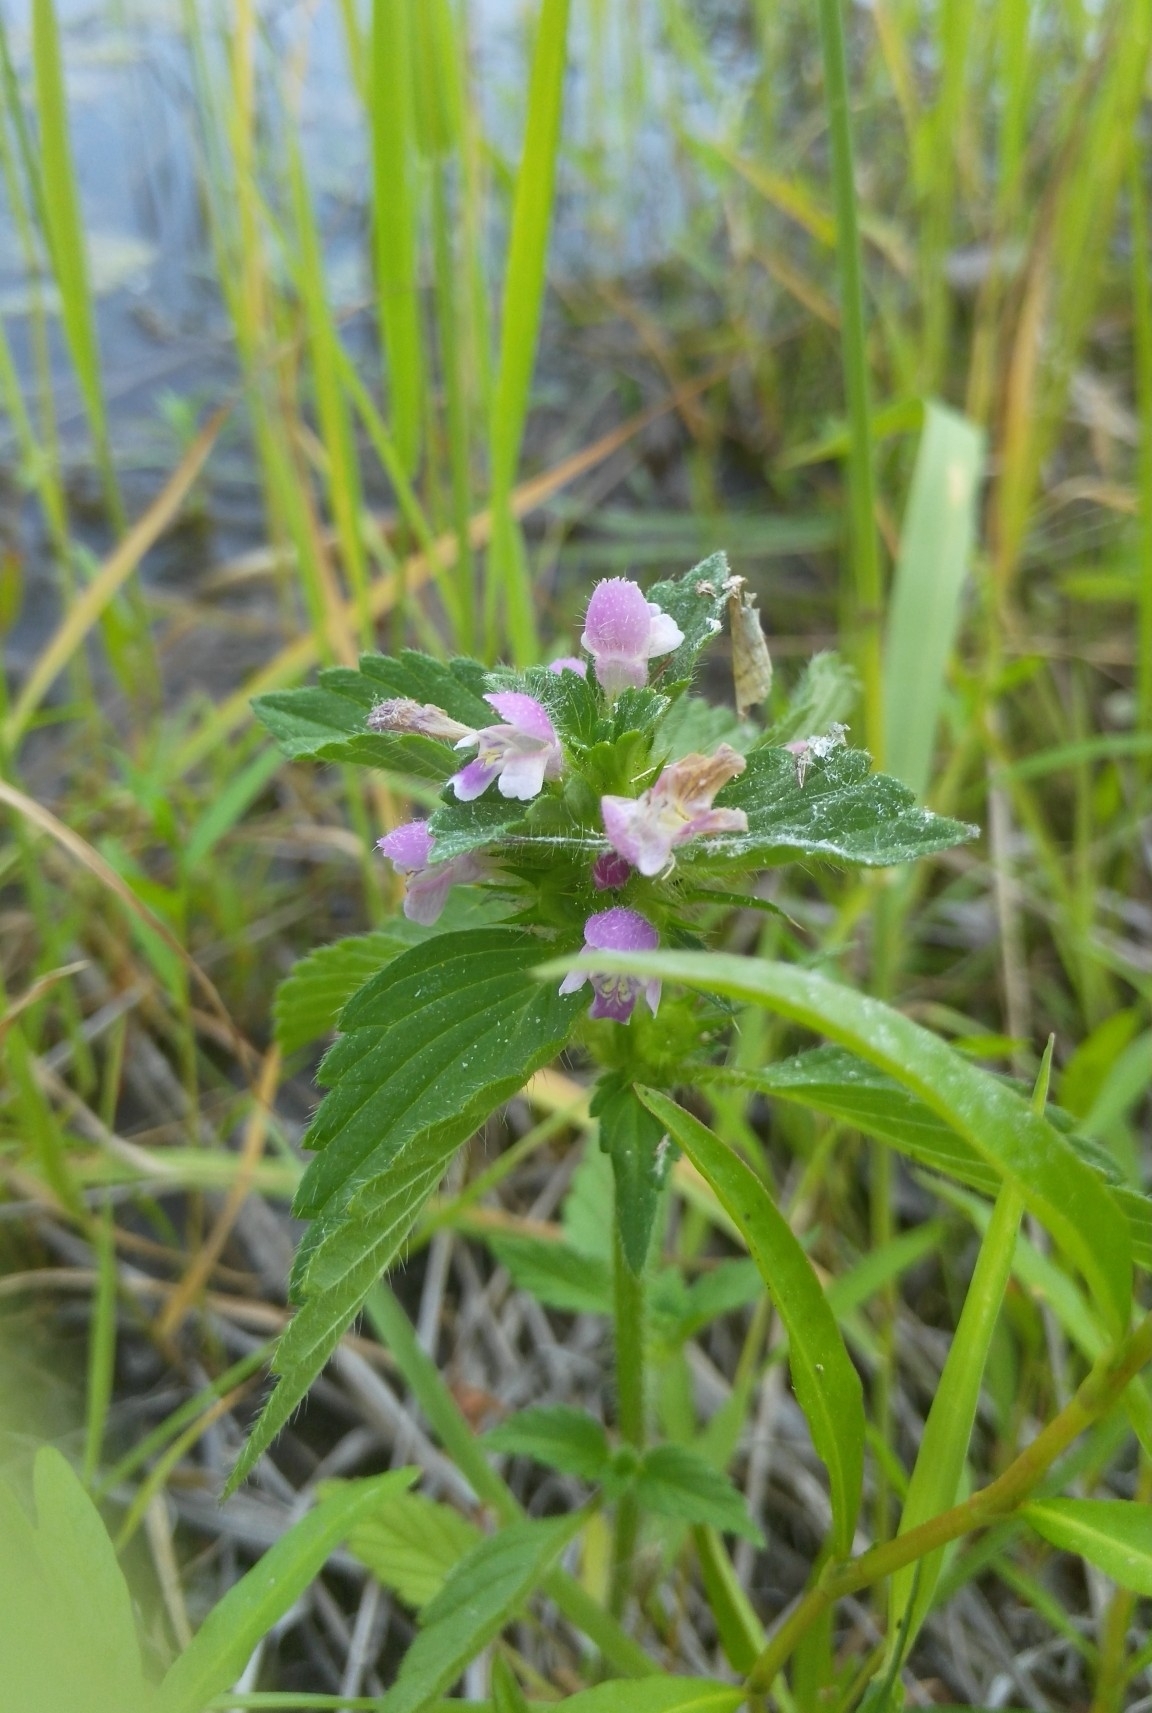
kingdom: Plantae
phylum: Tracheophyta
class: Magnoliopsida
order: Lamiales
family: Lamiaceae
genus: Galeopsis
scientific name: Galeopsis bifida
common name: Bifid hemp-nettle
